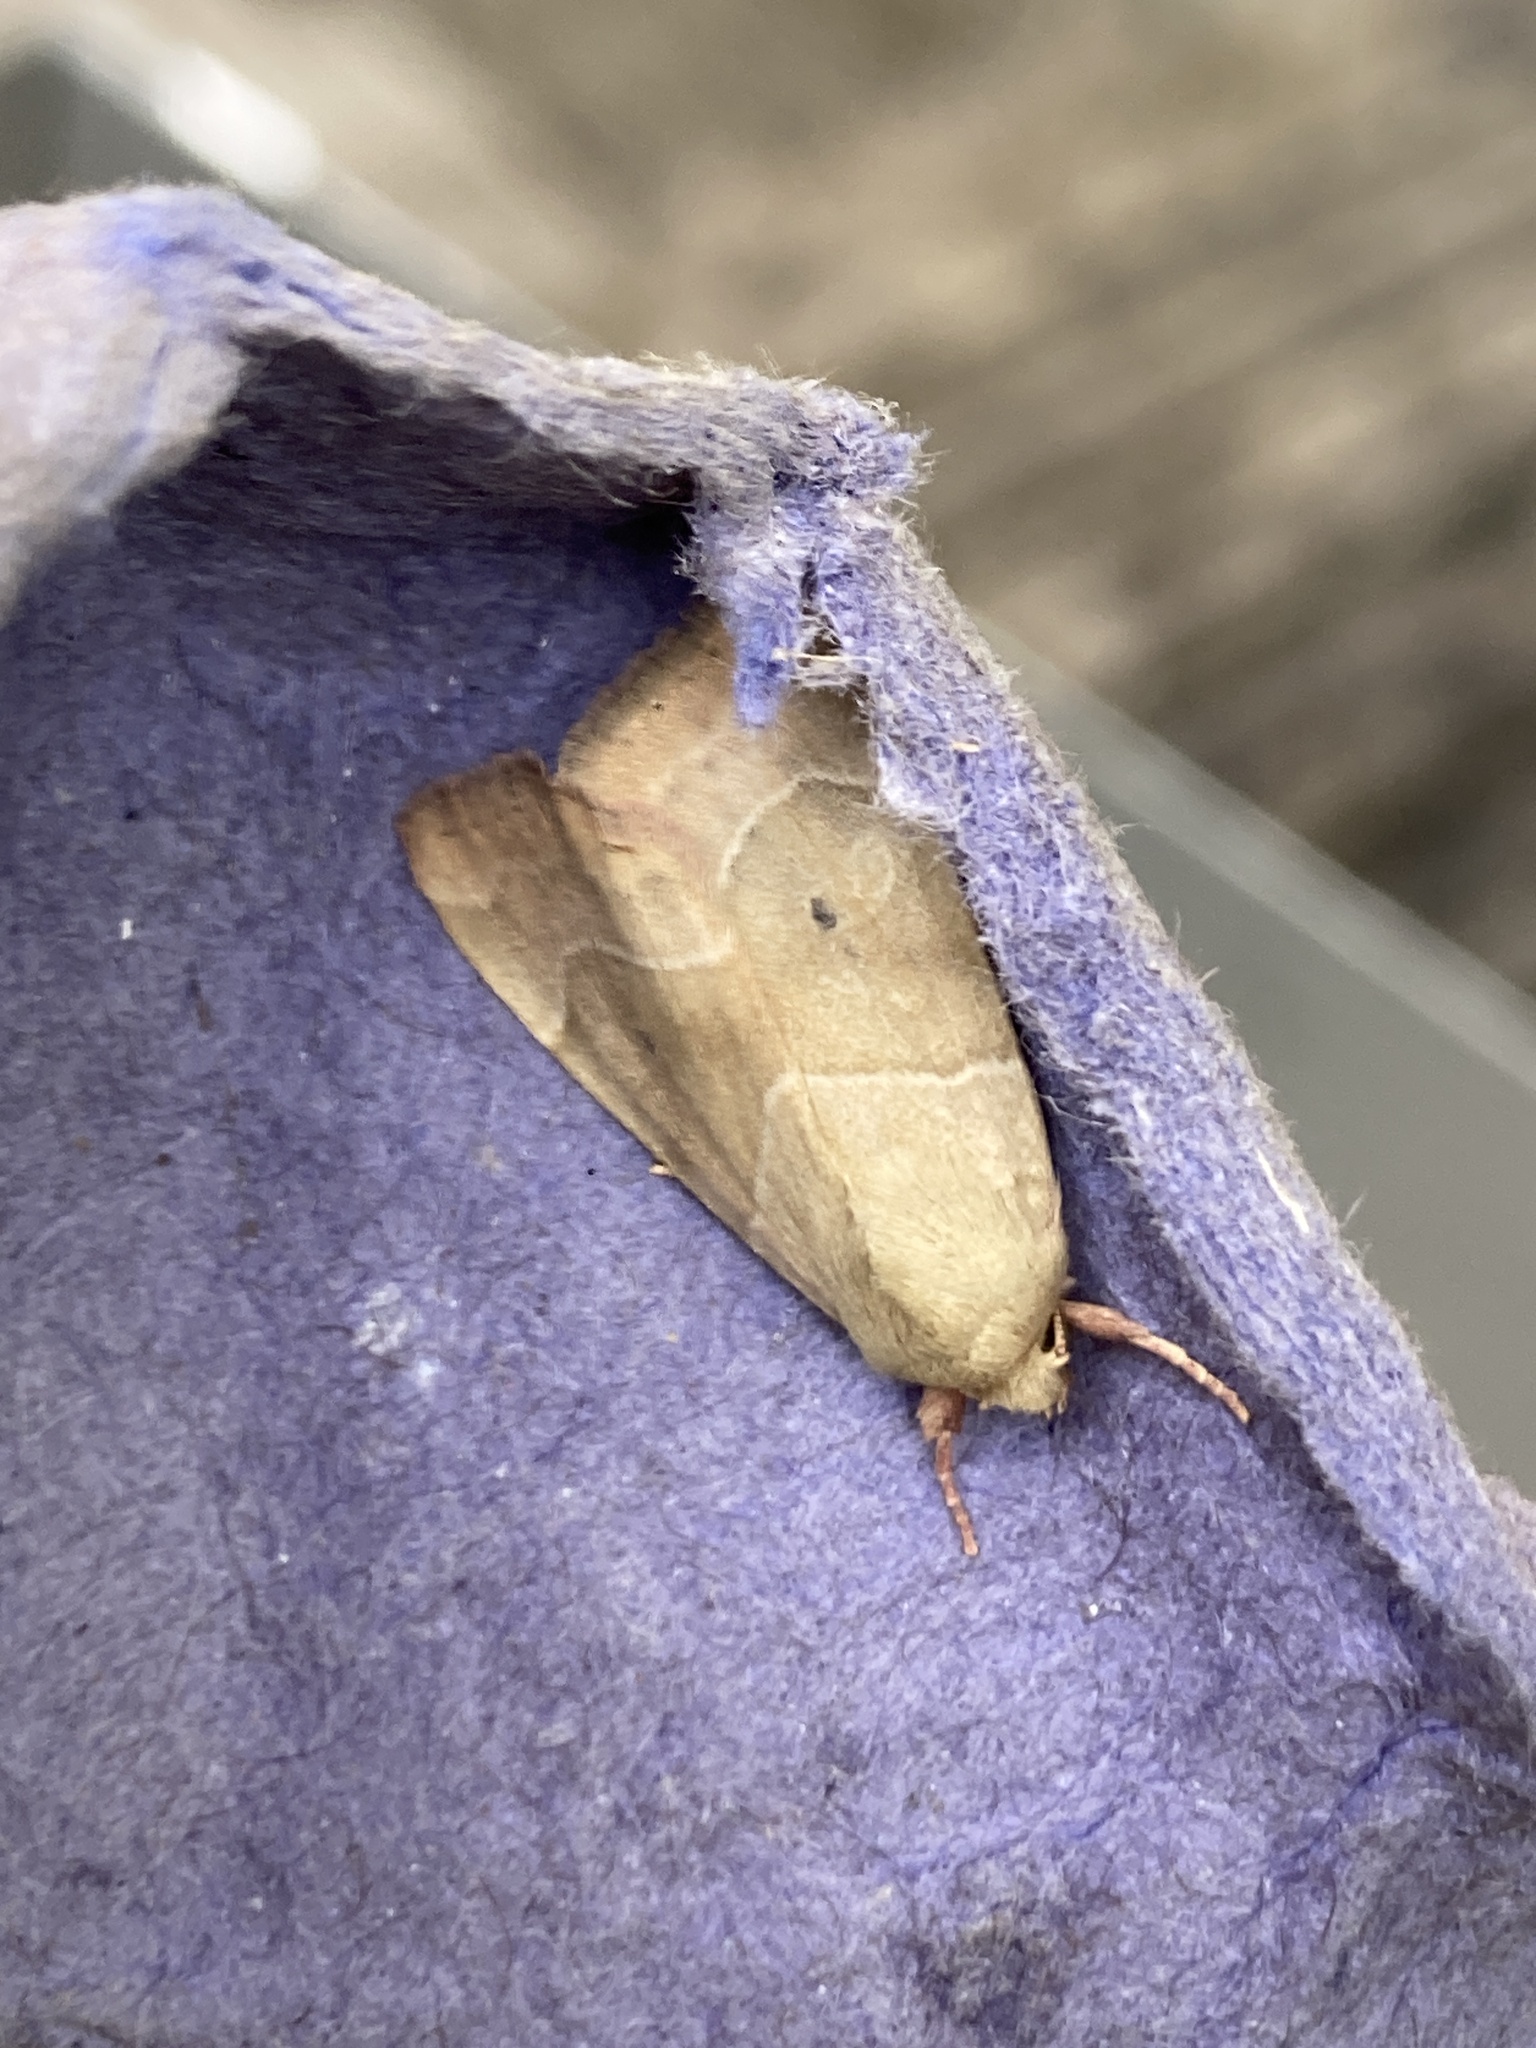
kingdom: Animalia
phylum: Arthropoda
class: Insecta
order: Lepidoptera
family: Noctuidae
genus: Cosmia
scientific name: Cosmia trapezina
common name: Dun-bar
